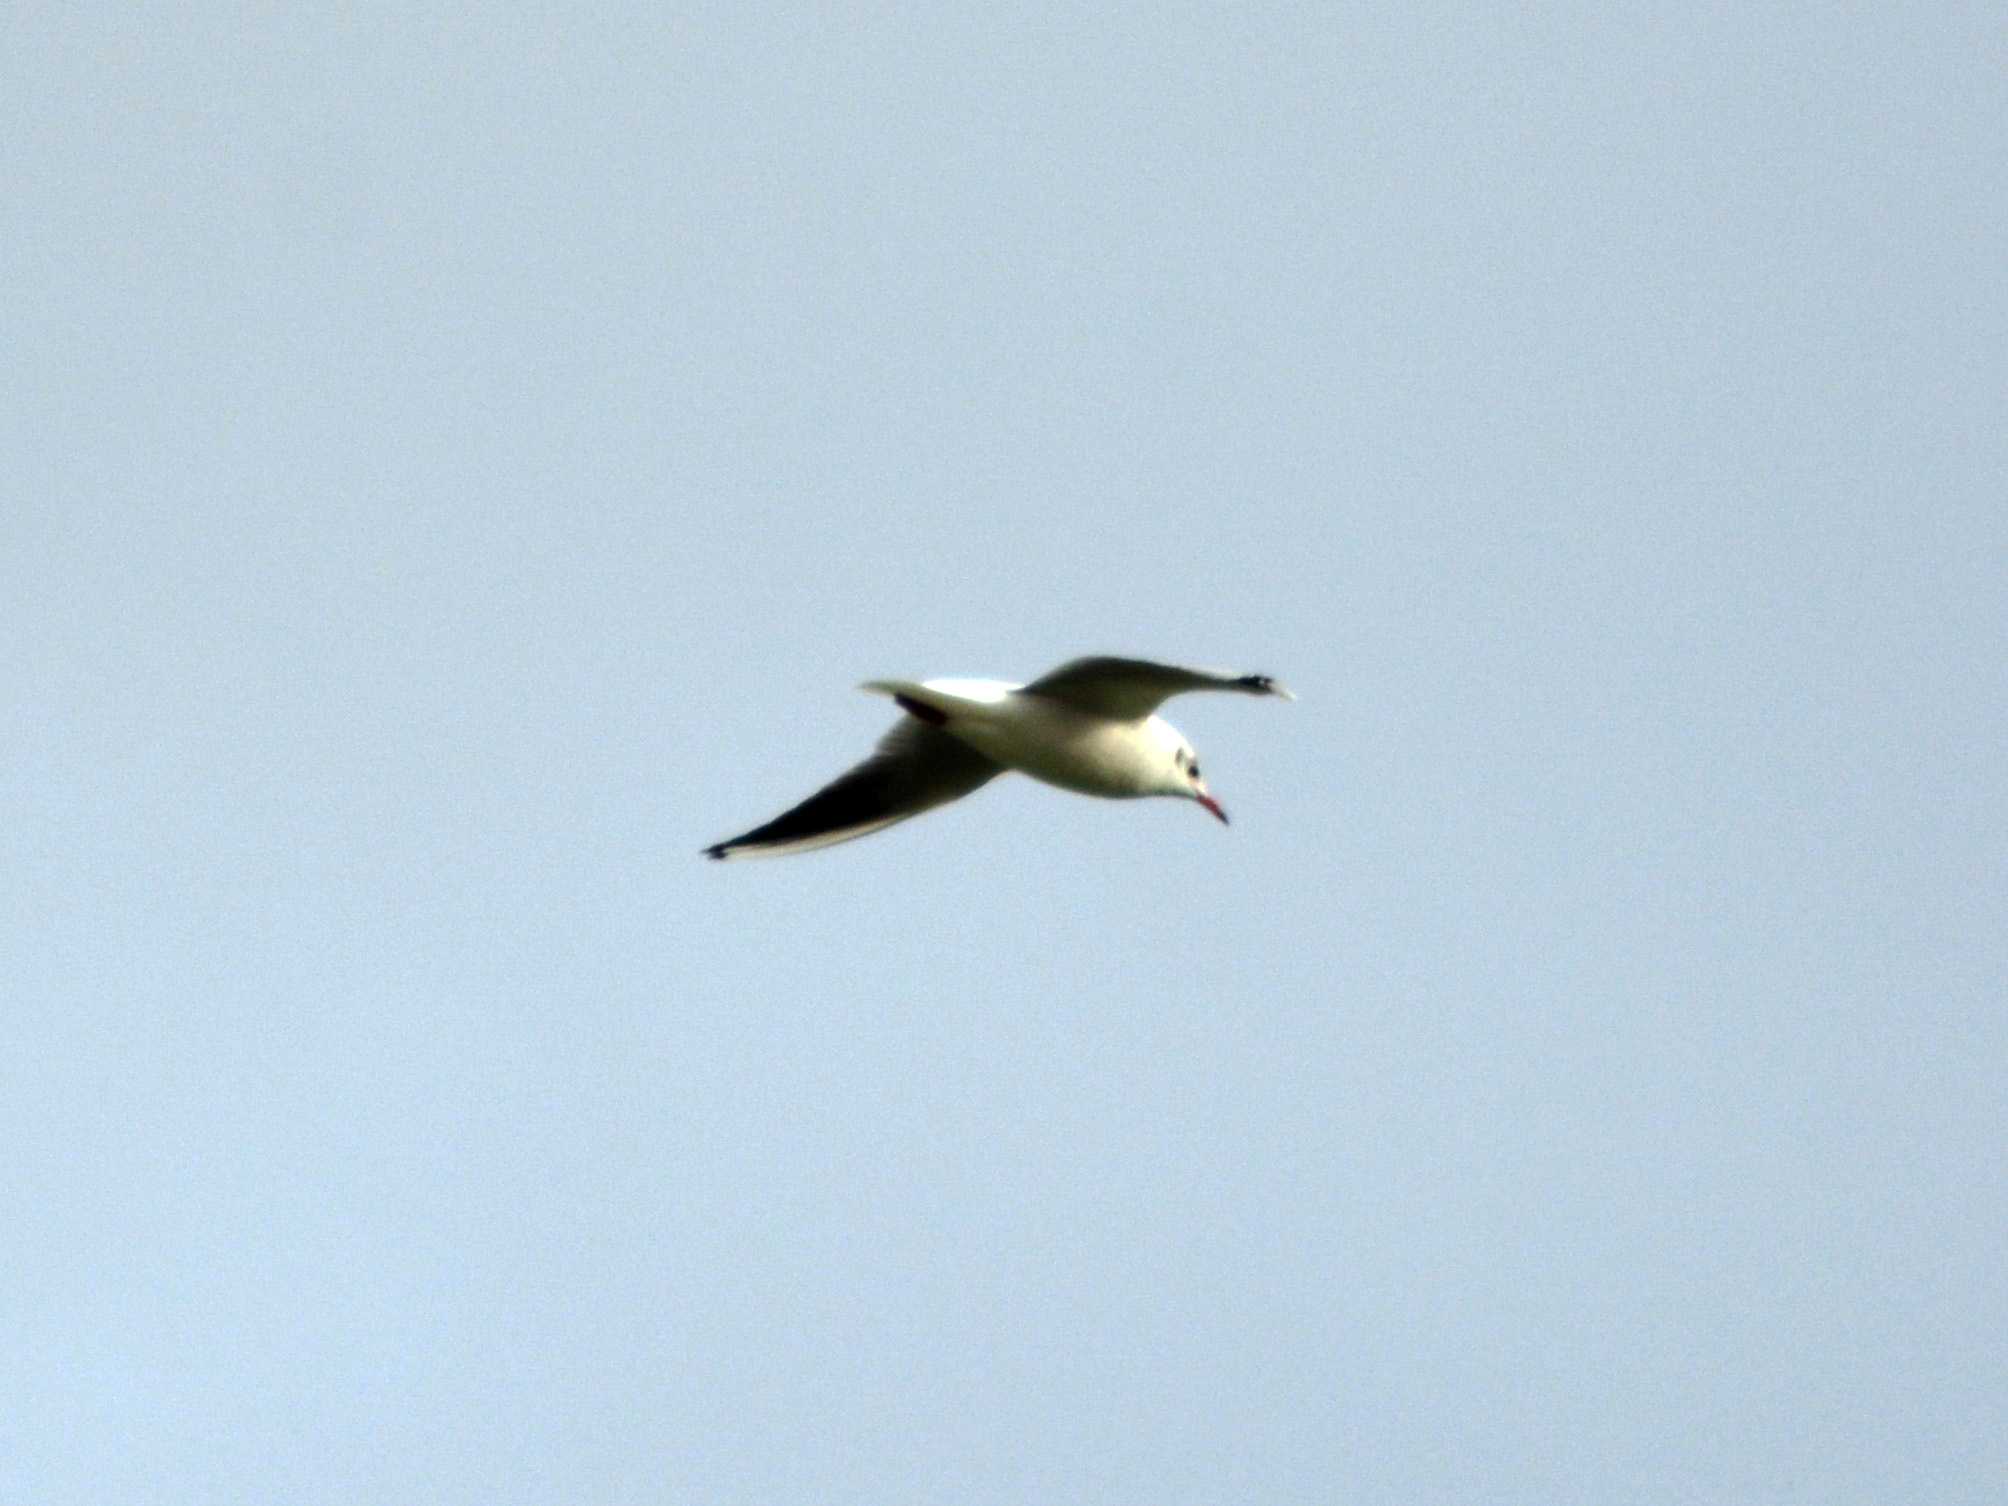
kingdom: Animalia
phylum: Chordata
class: Aves
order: Charadriiformes
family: Laridae
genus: Chroicocephalus
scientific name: Chroicocephalus ridibundus
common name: Black-headed gull
